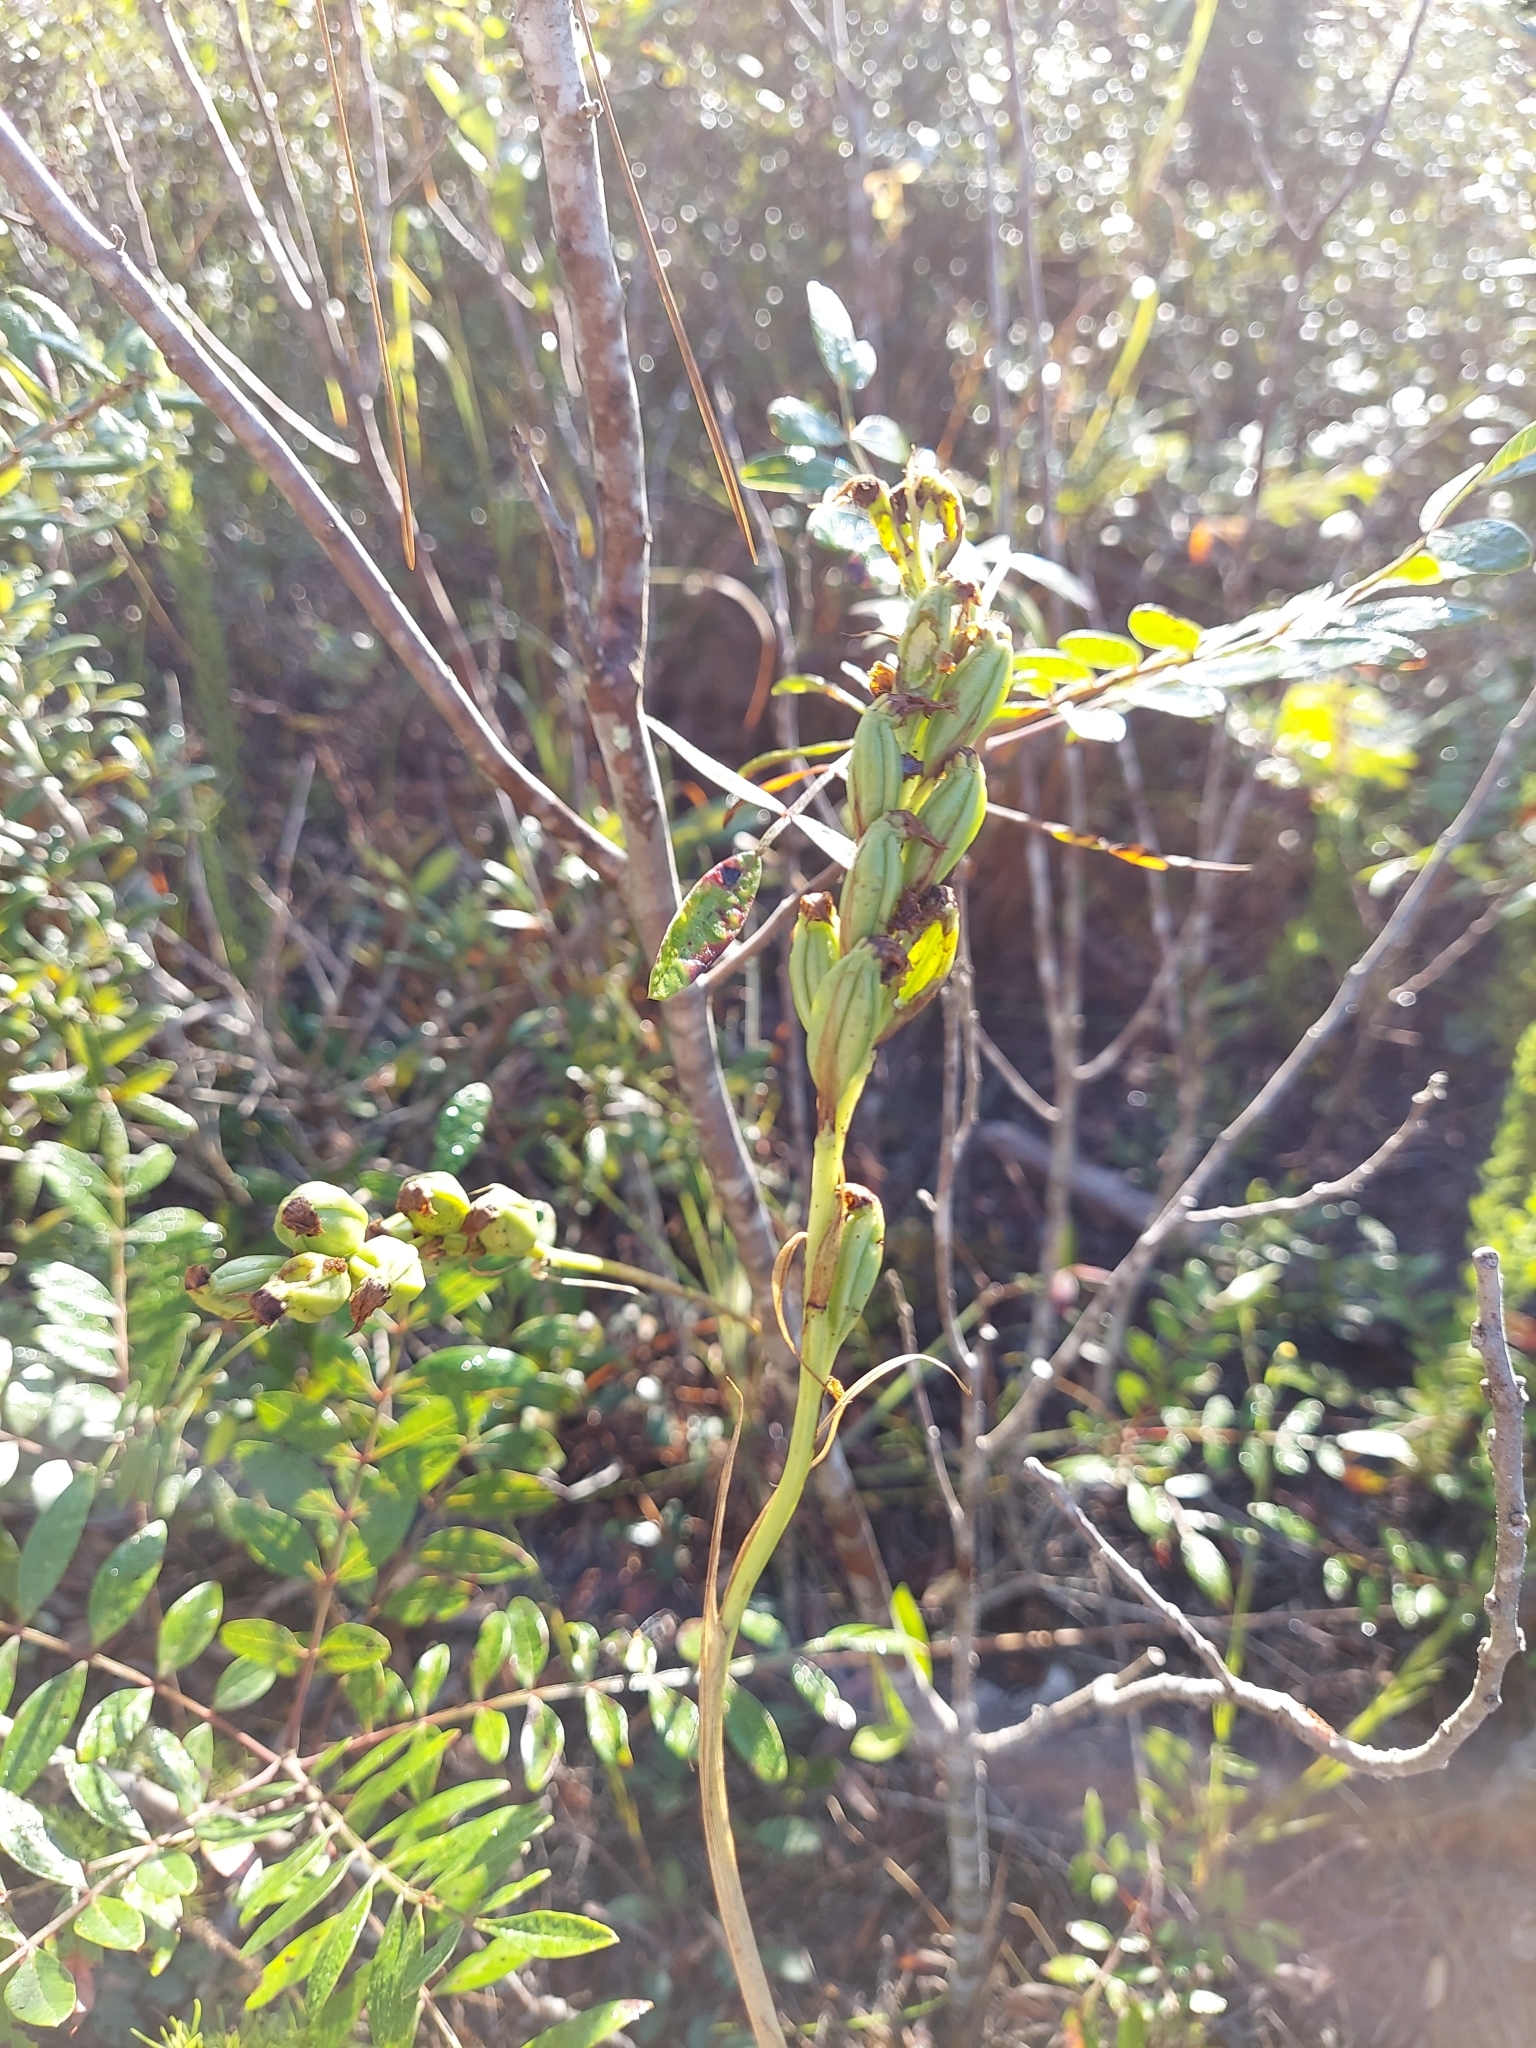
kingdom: Plantae
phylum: Tracheophyta
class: Liliopsida
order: Asparagales
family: Orchidaceae
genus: Eulophia
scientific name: Eulophia ecristata
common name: Giant orchid
